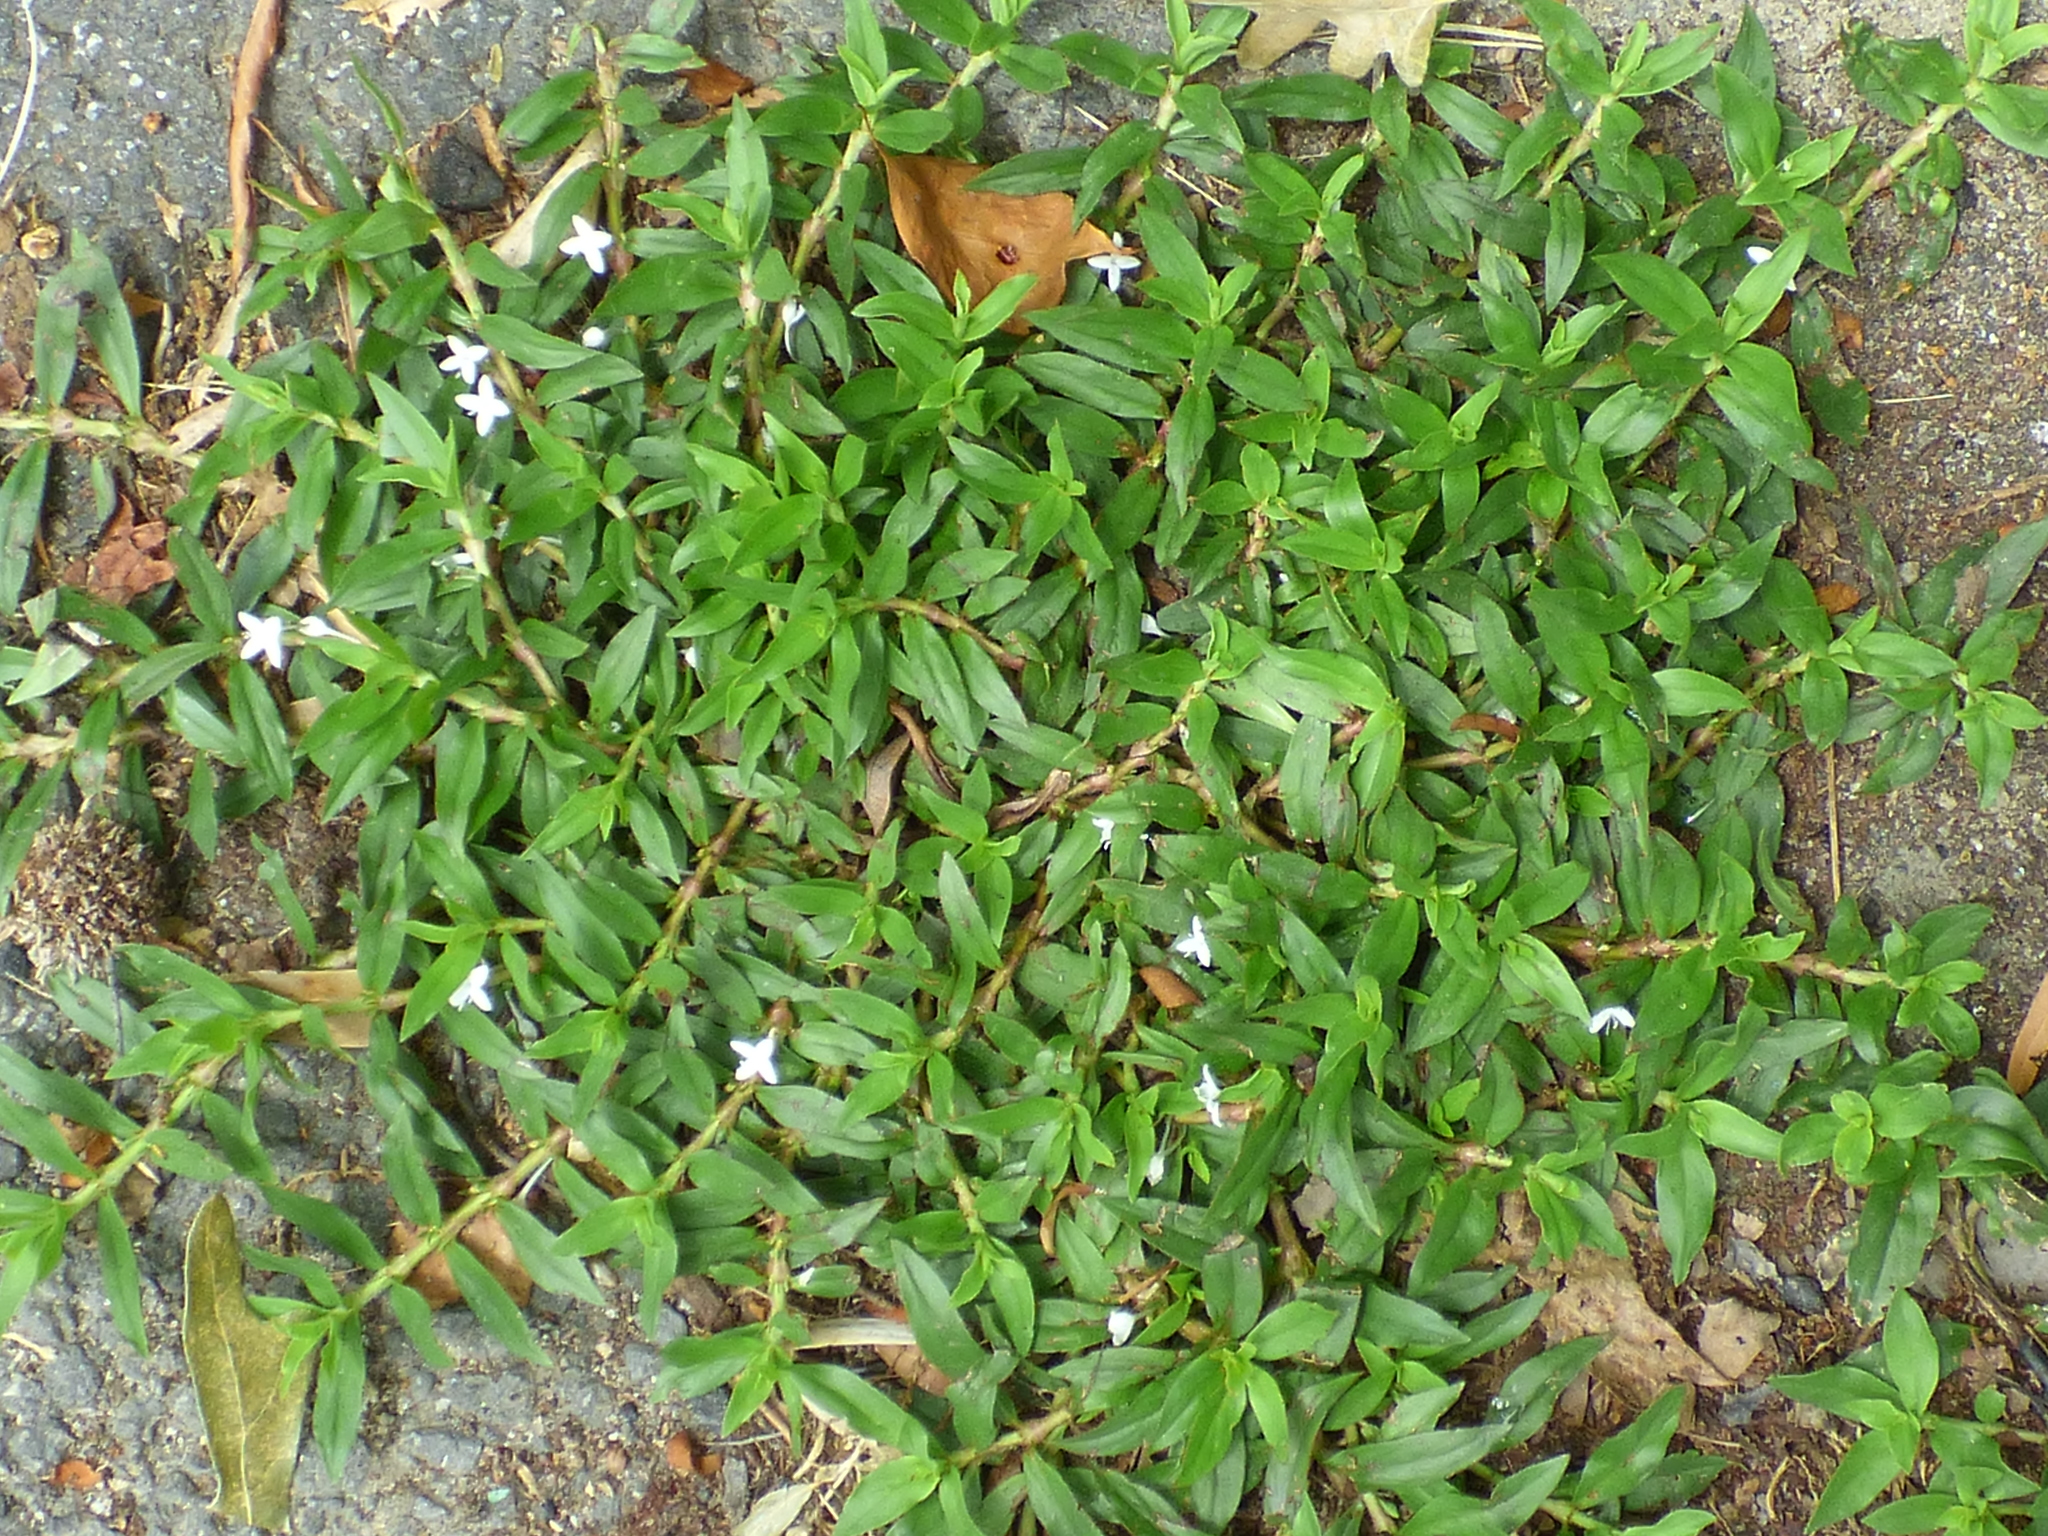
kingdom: Plantae
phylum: Tracheophyta
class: Magnoliopsida
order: Gentianales
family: Rubiaceae
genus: Diodia
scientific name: Diodia virginiana
